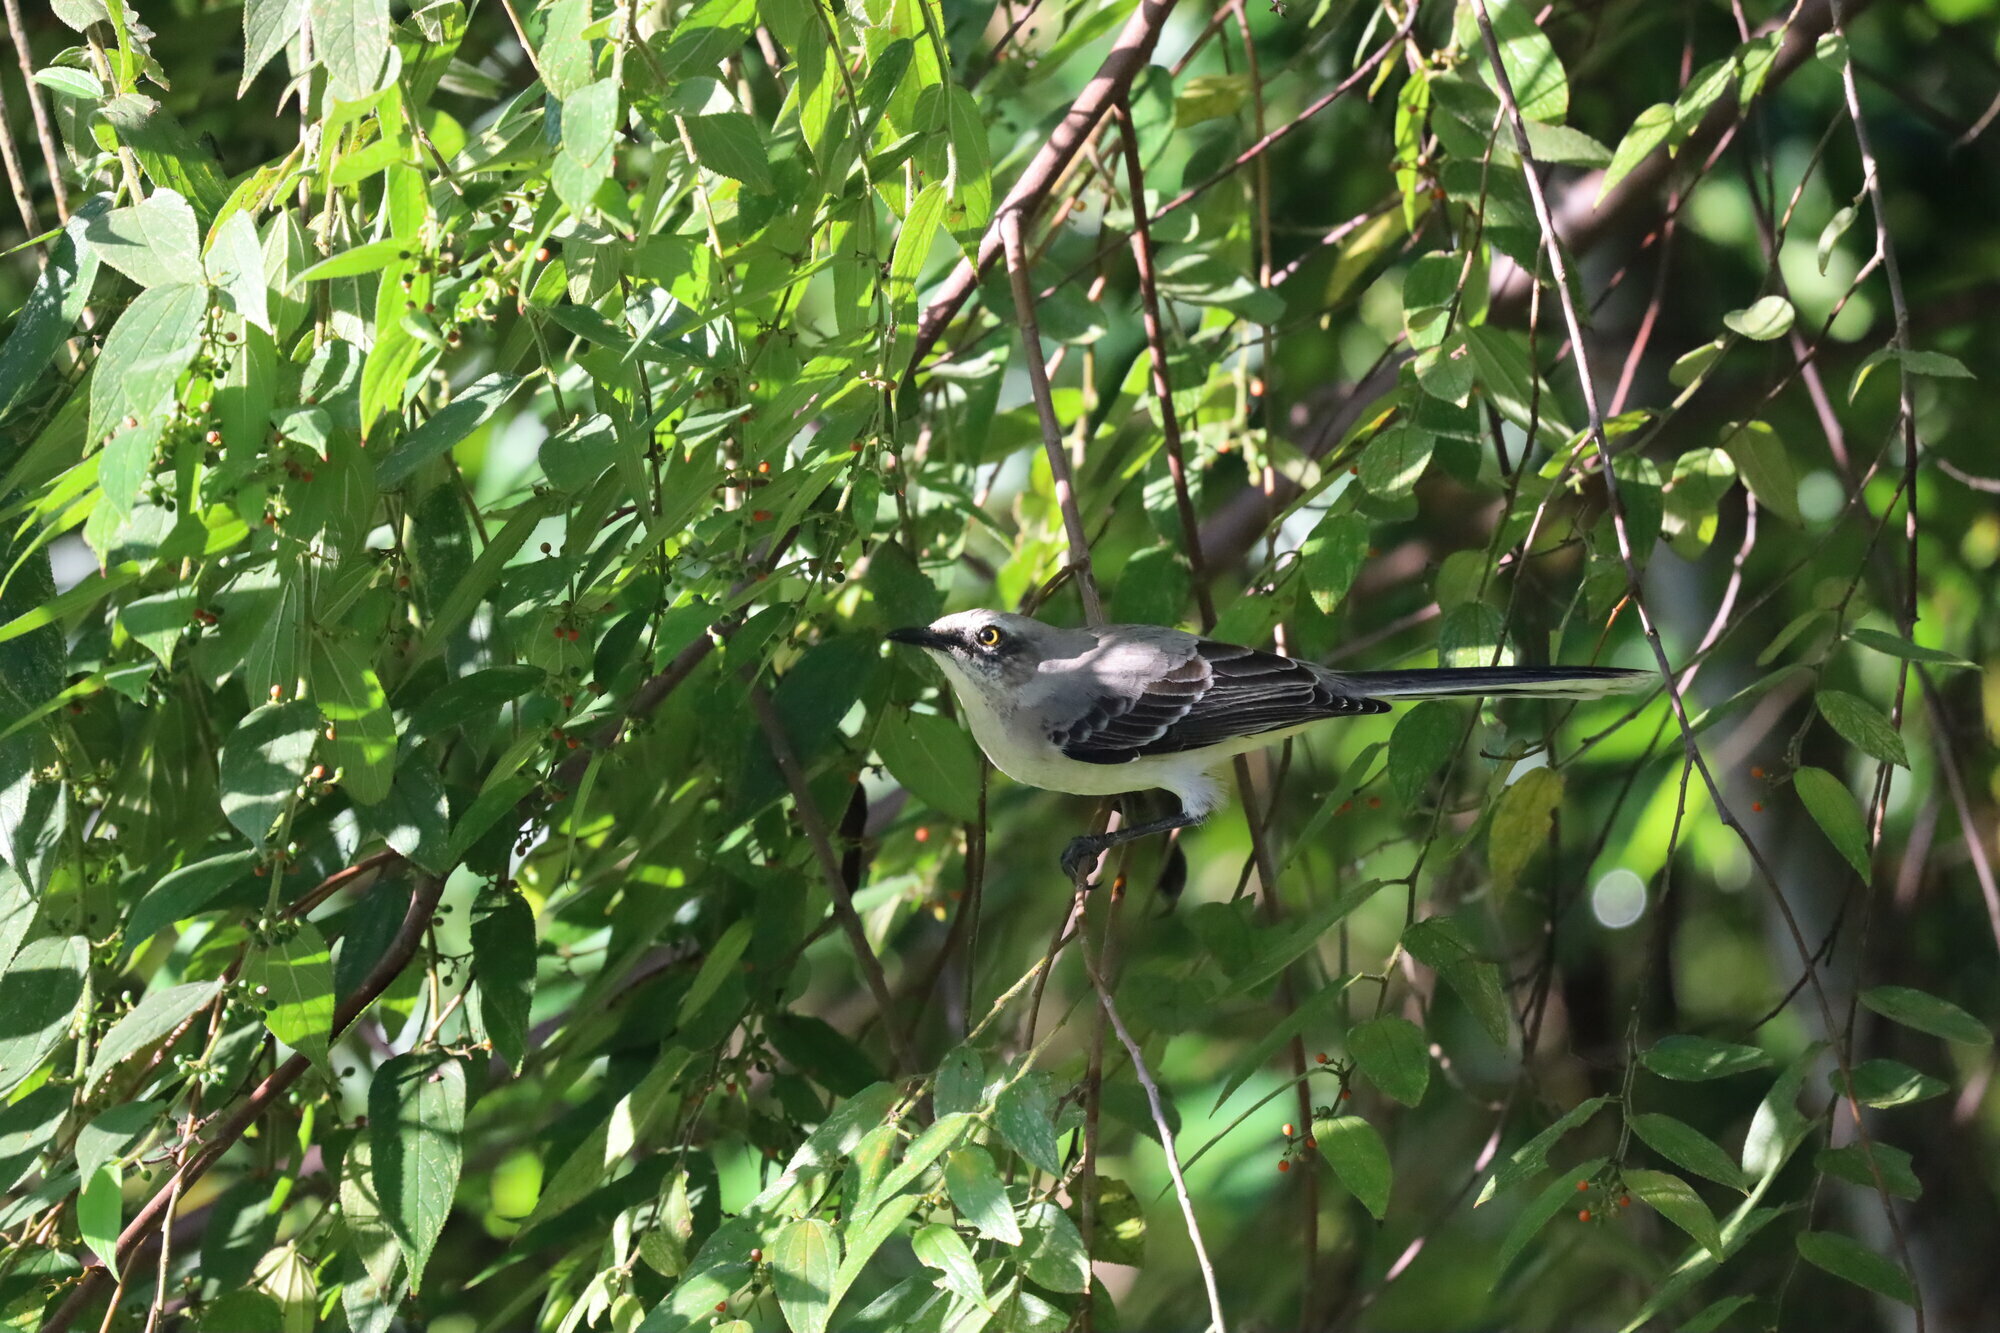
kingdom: Animalia
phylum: Chordata
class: Aves
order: Passeriformes
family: Mimidae
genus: Mimus
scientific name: Mimus gilvus
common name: Tropical mockingbird
